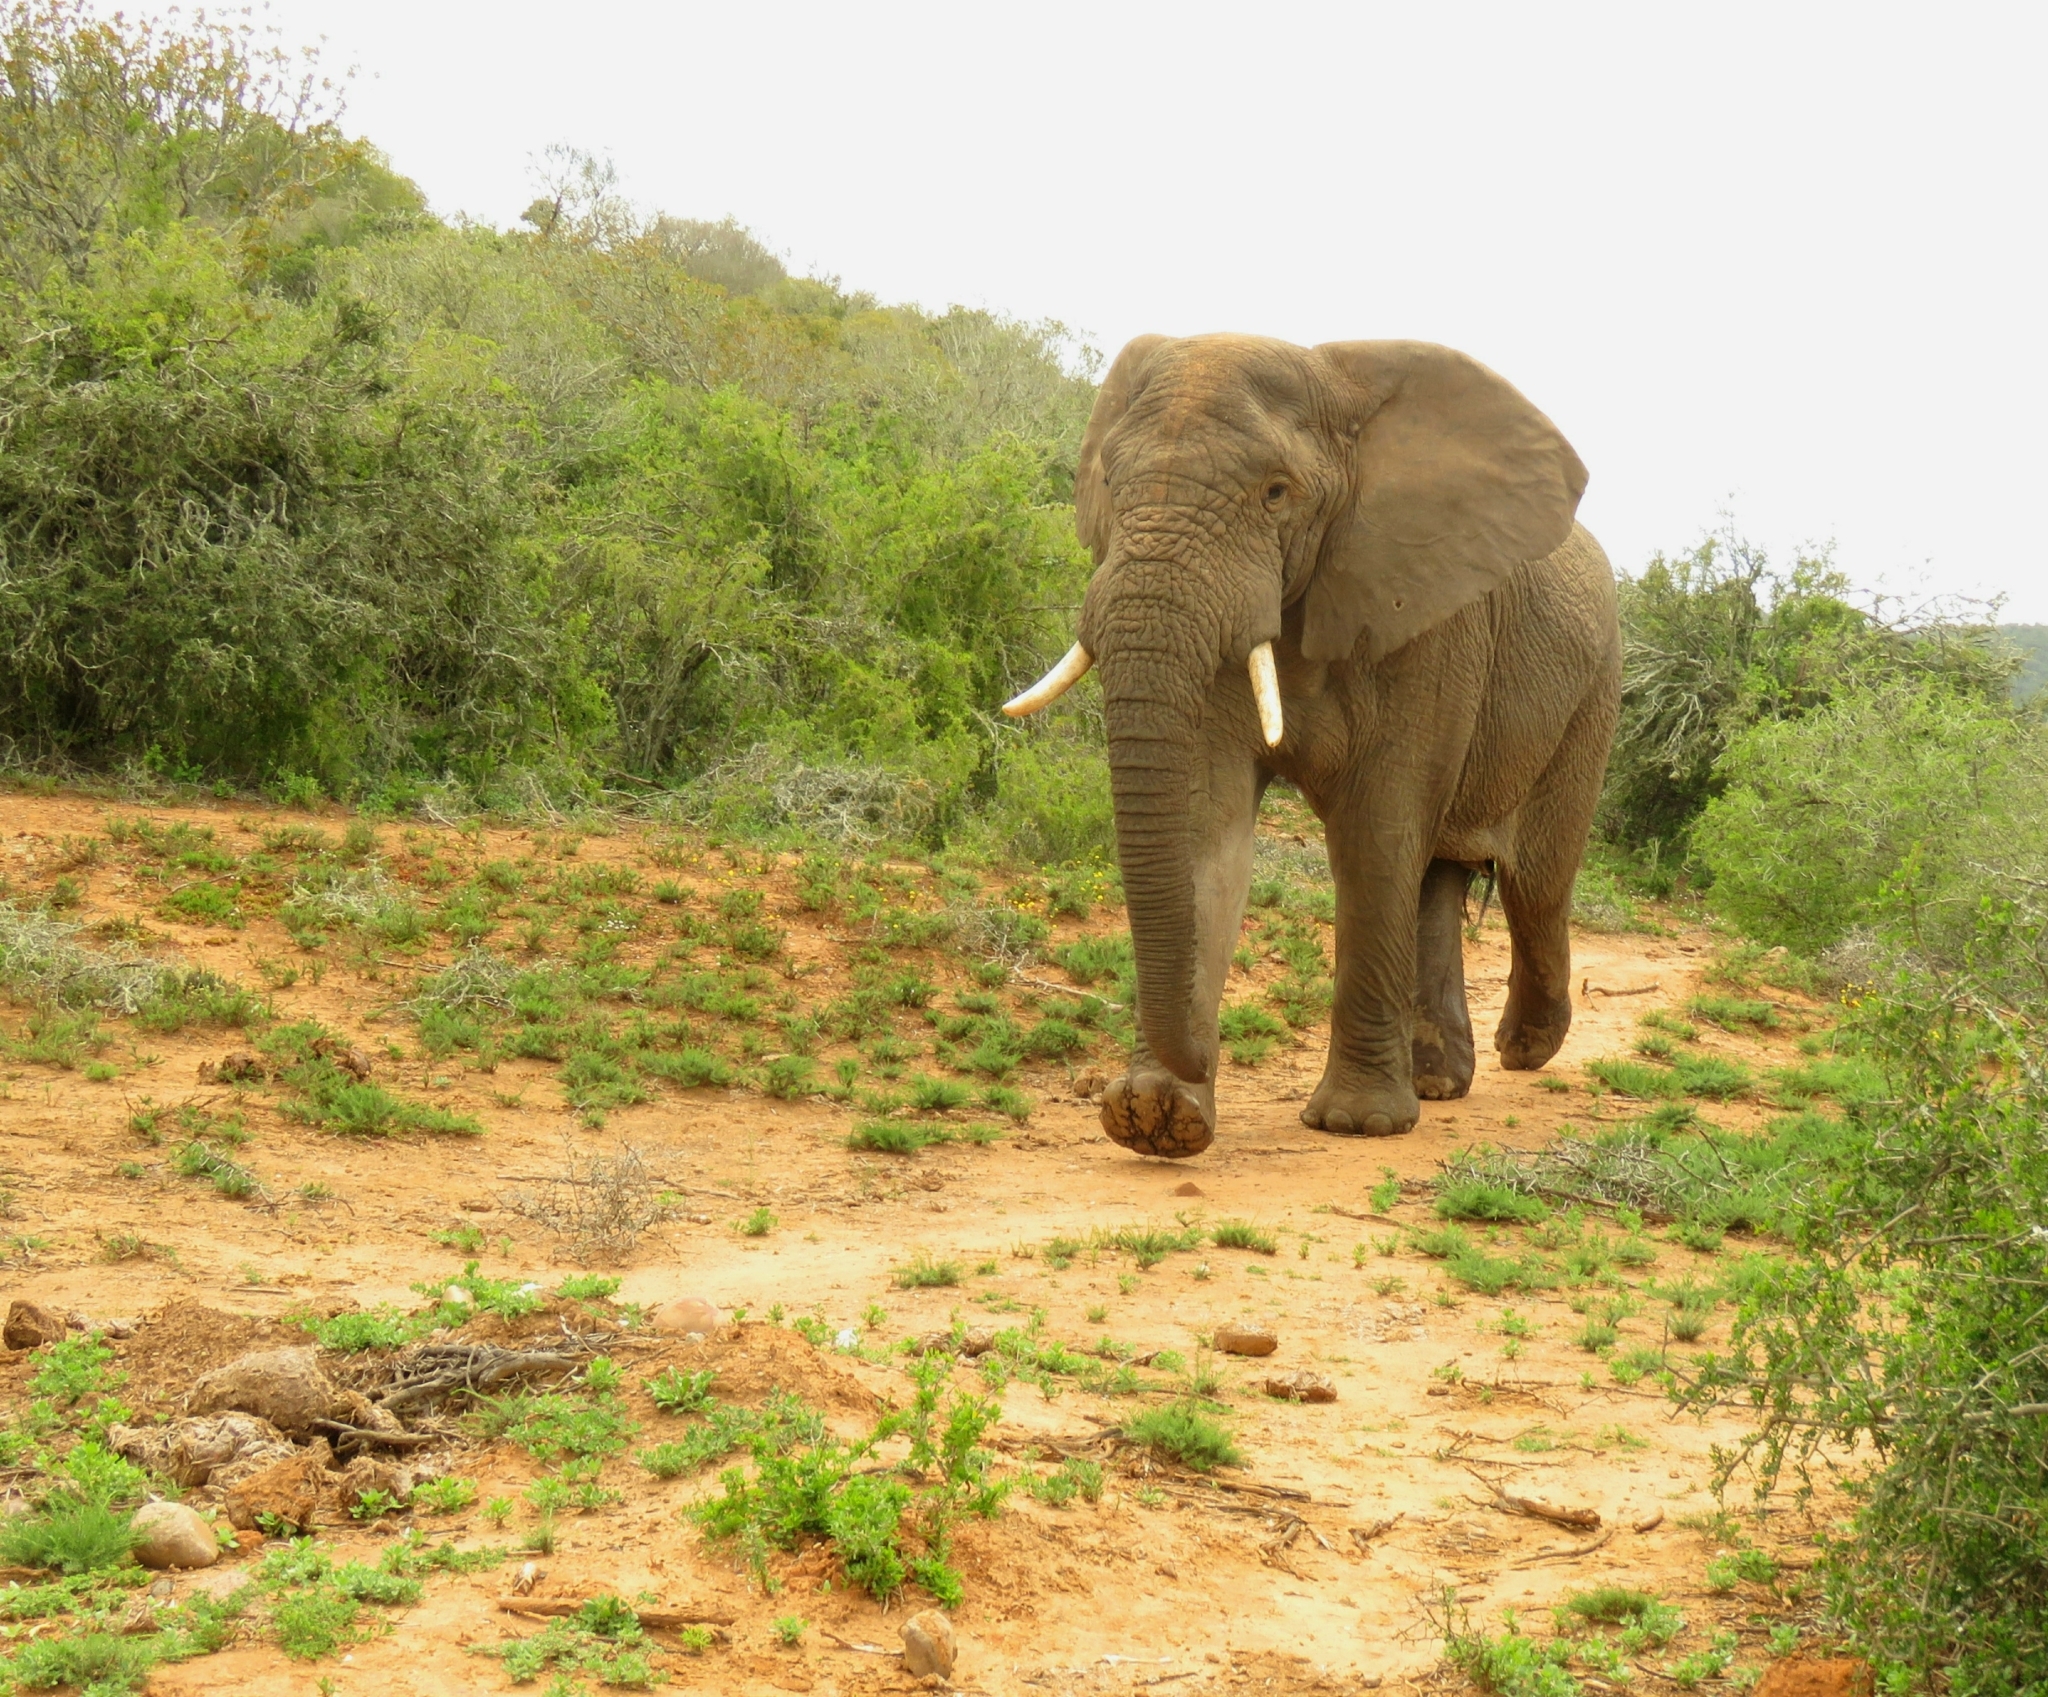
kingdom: Animalia
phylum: Chordata
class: Mammalia
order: Proboscidea
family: Elephantidae
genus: Loxodonta
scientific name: Loxodonta africana
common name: African elephant
